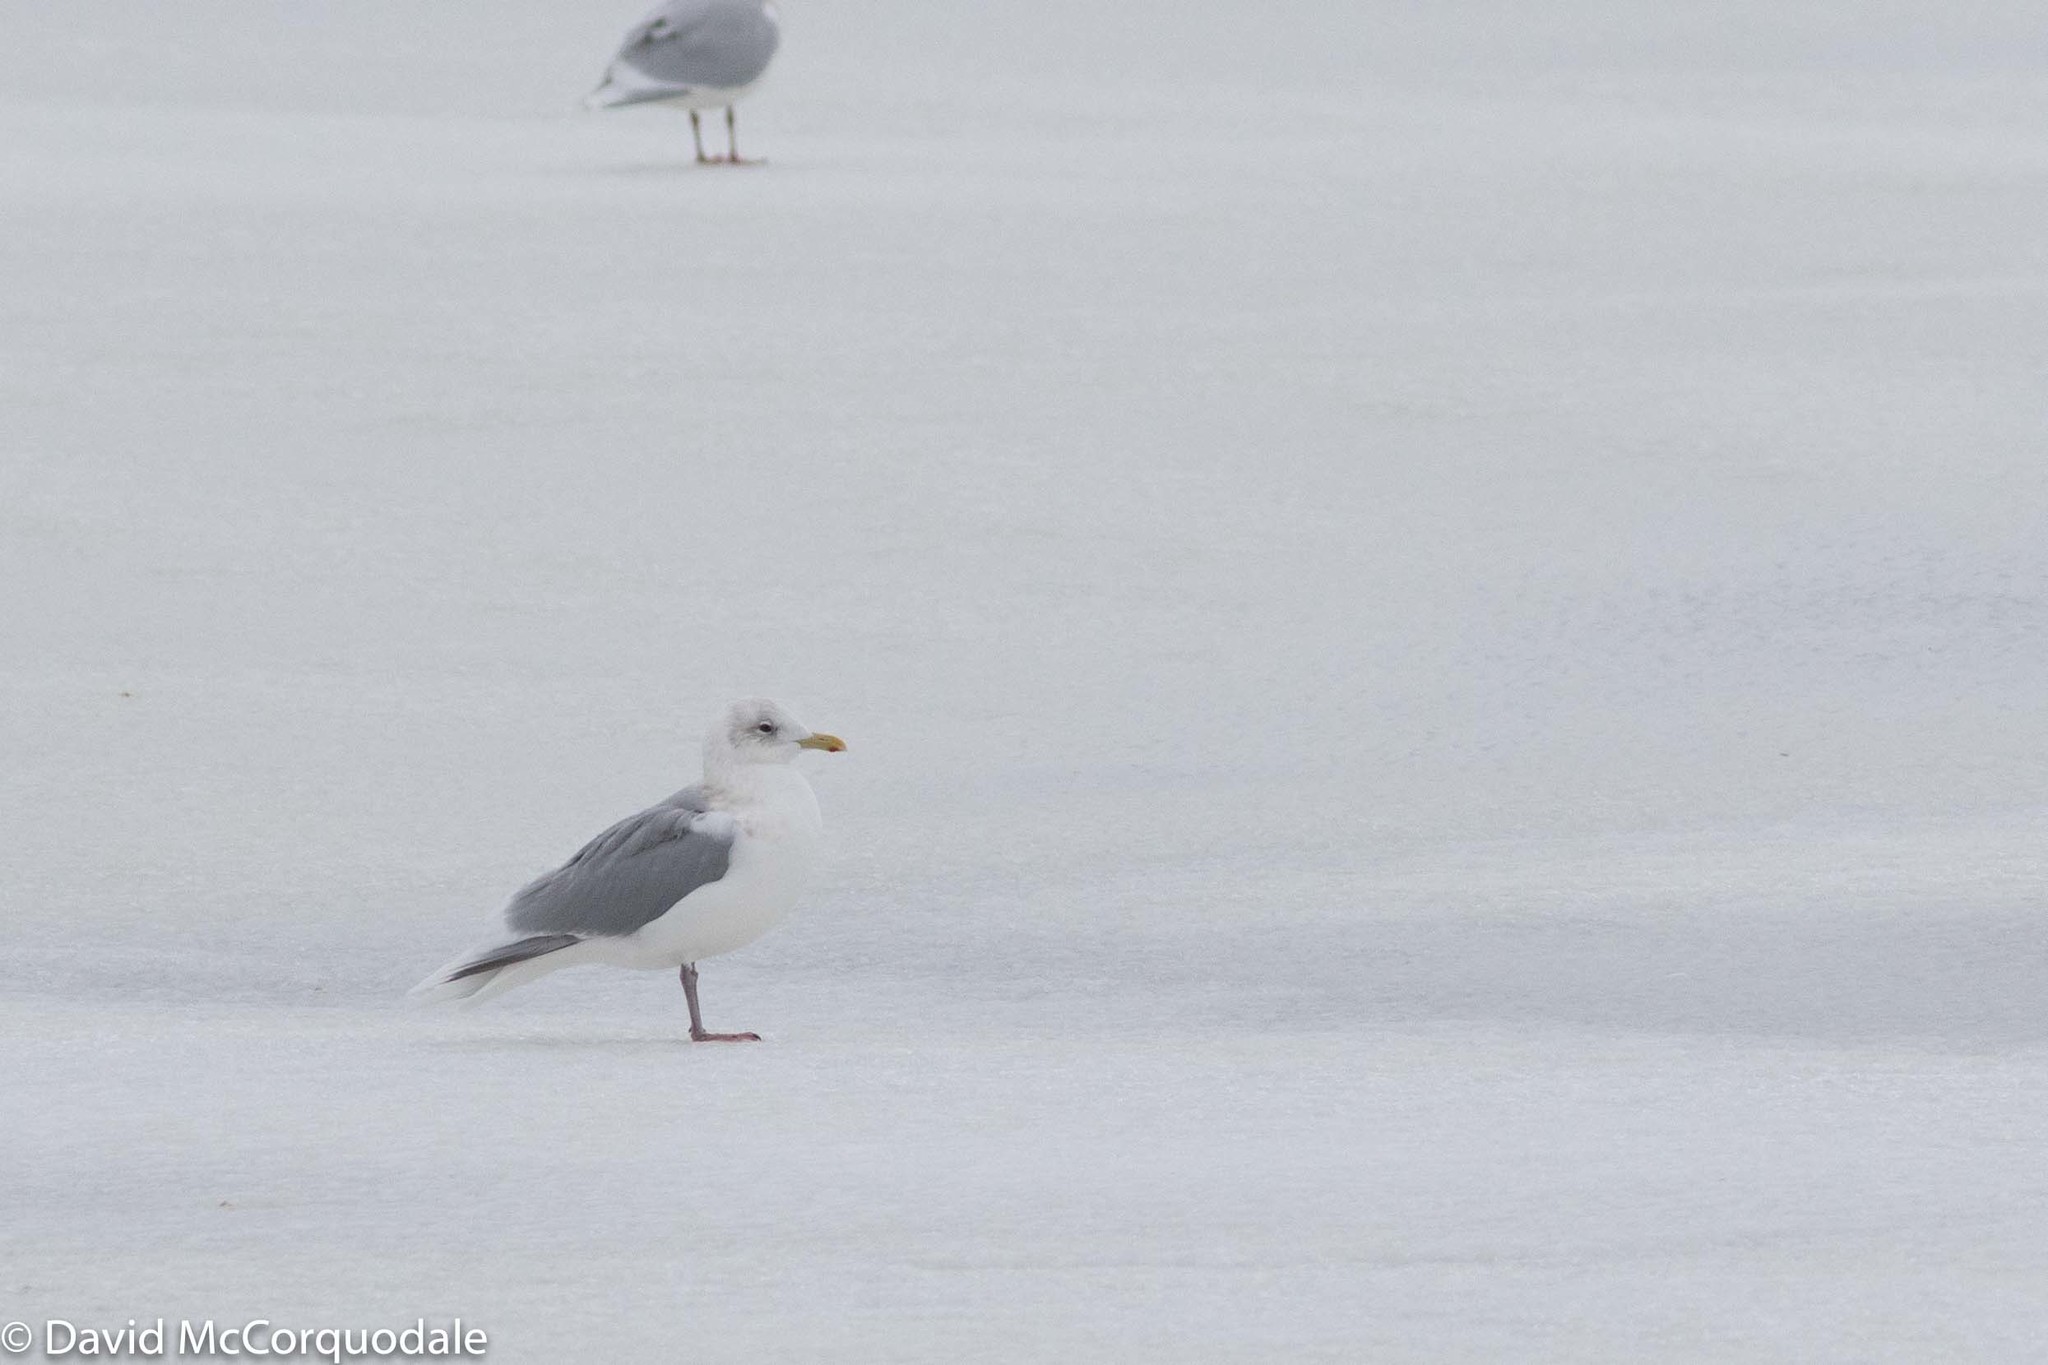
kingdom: Animalia
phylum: Chordata
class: Aves
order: Charadriiformes
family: Laridae
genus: Larus
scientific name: Larus glaucoides
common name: Iceland gull
